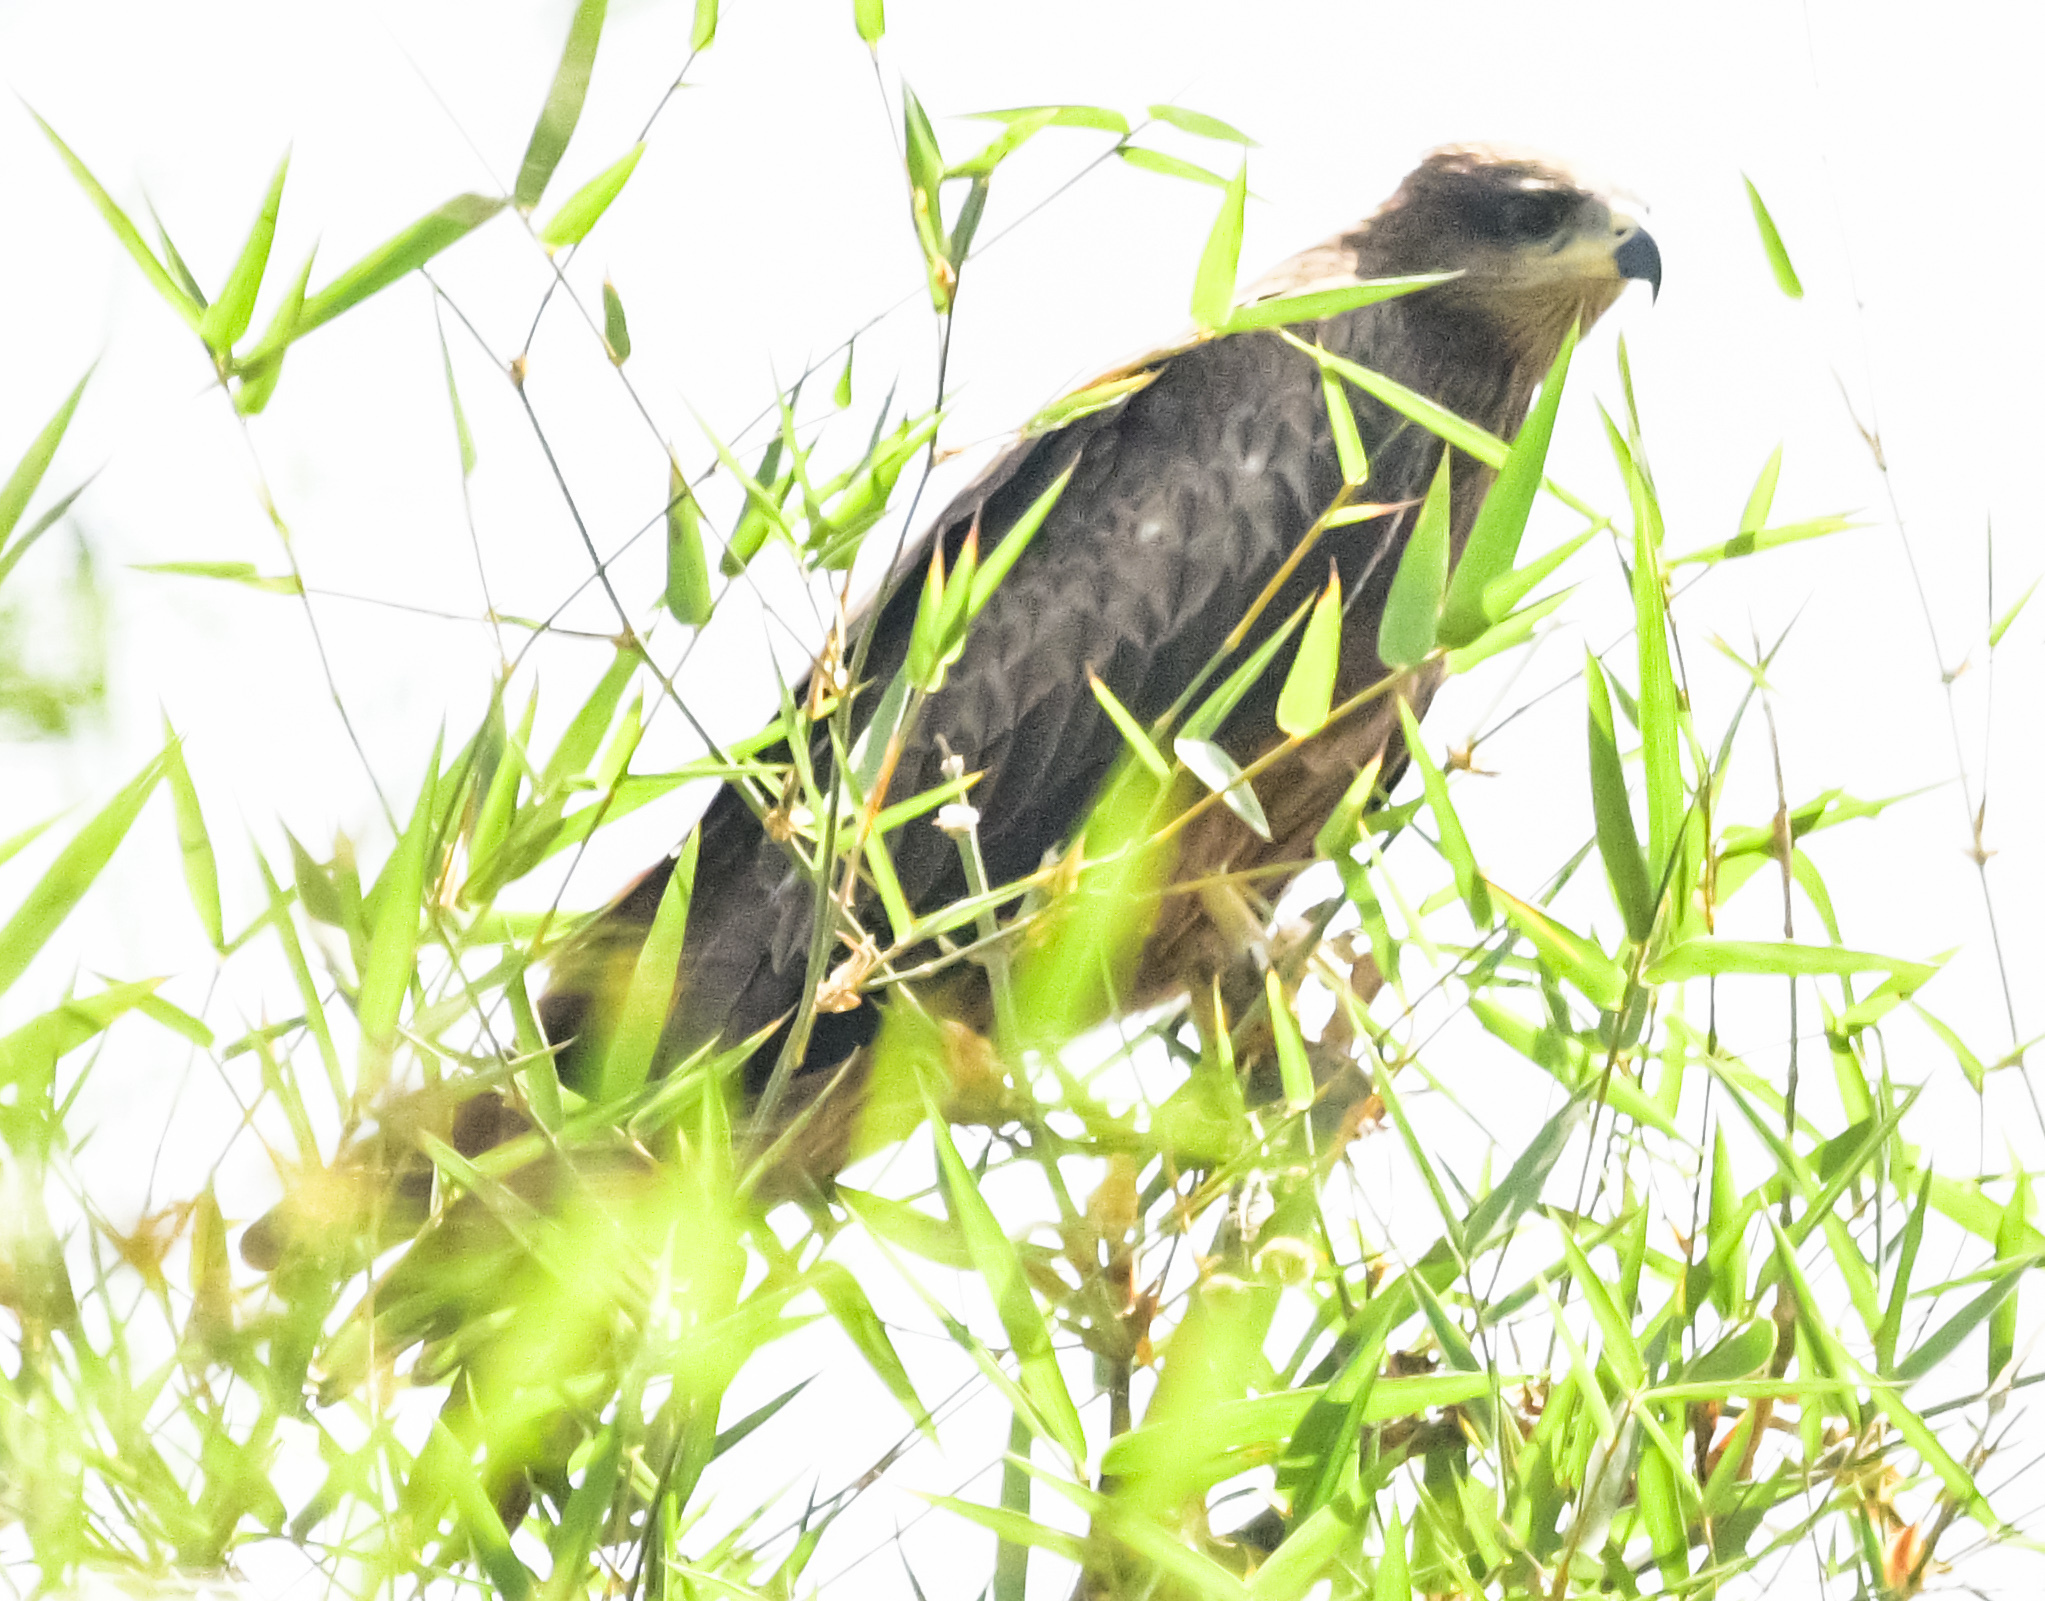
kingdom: Animalia
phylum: Chordata
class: Aves
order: Accipitriformes
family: Accipitridae
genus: Milvus
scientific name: Milvus migrans
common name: Black kite
